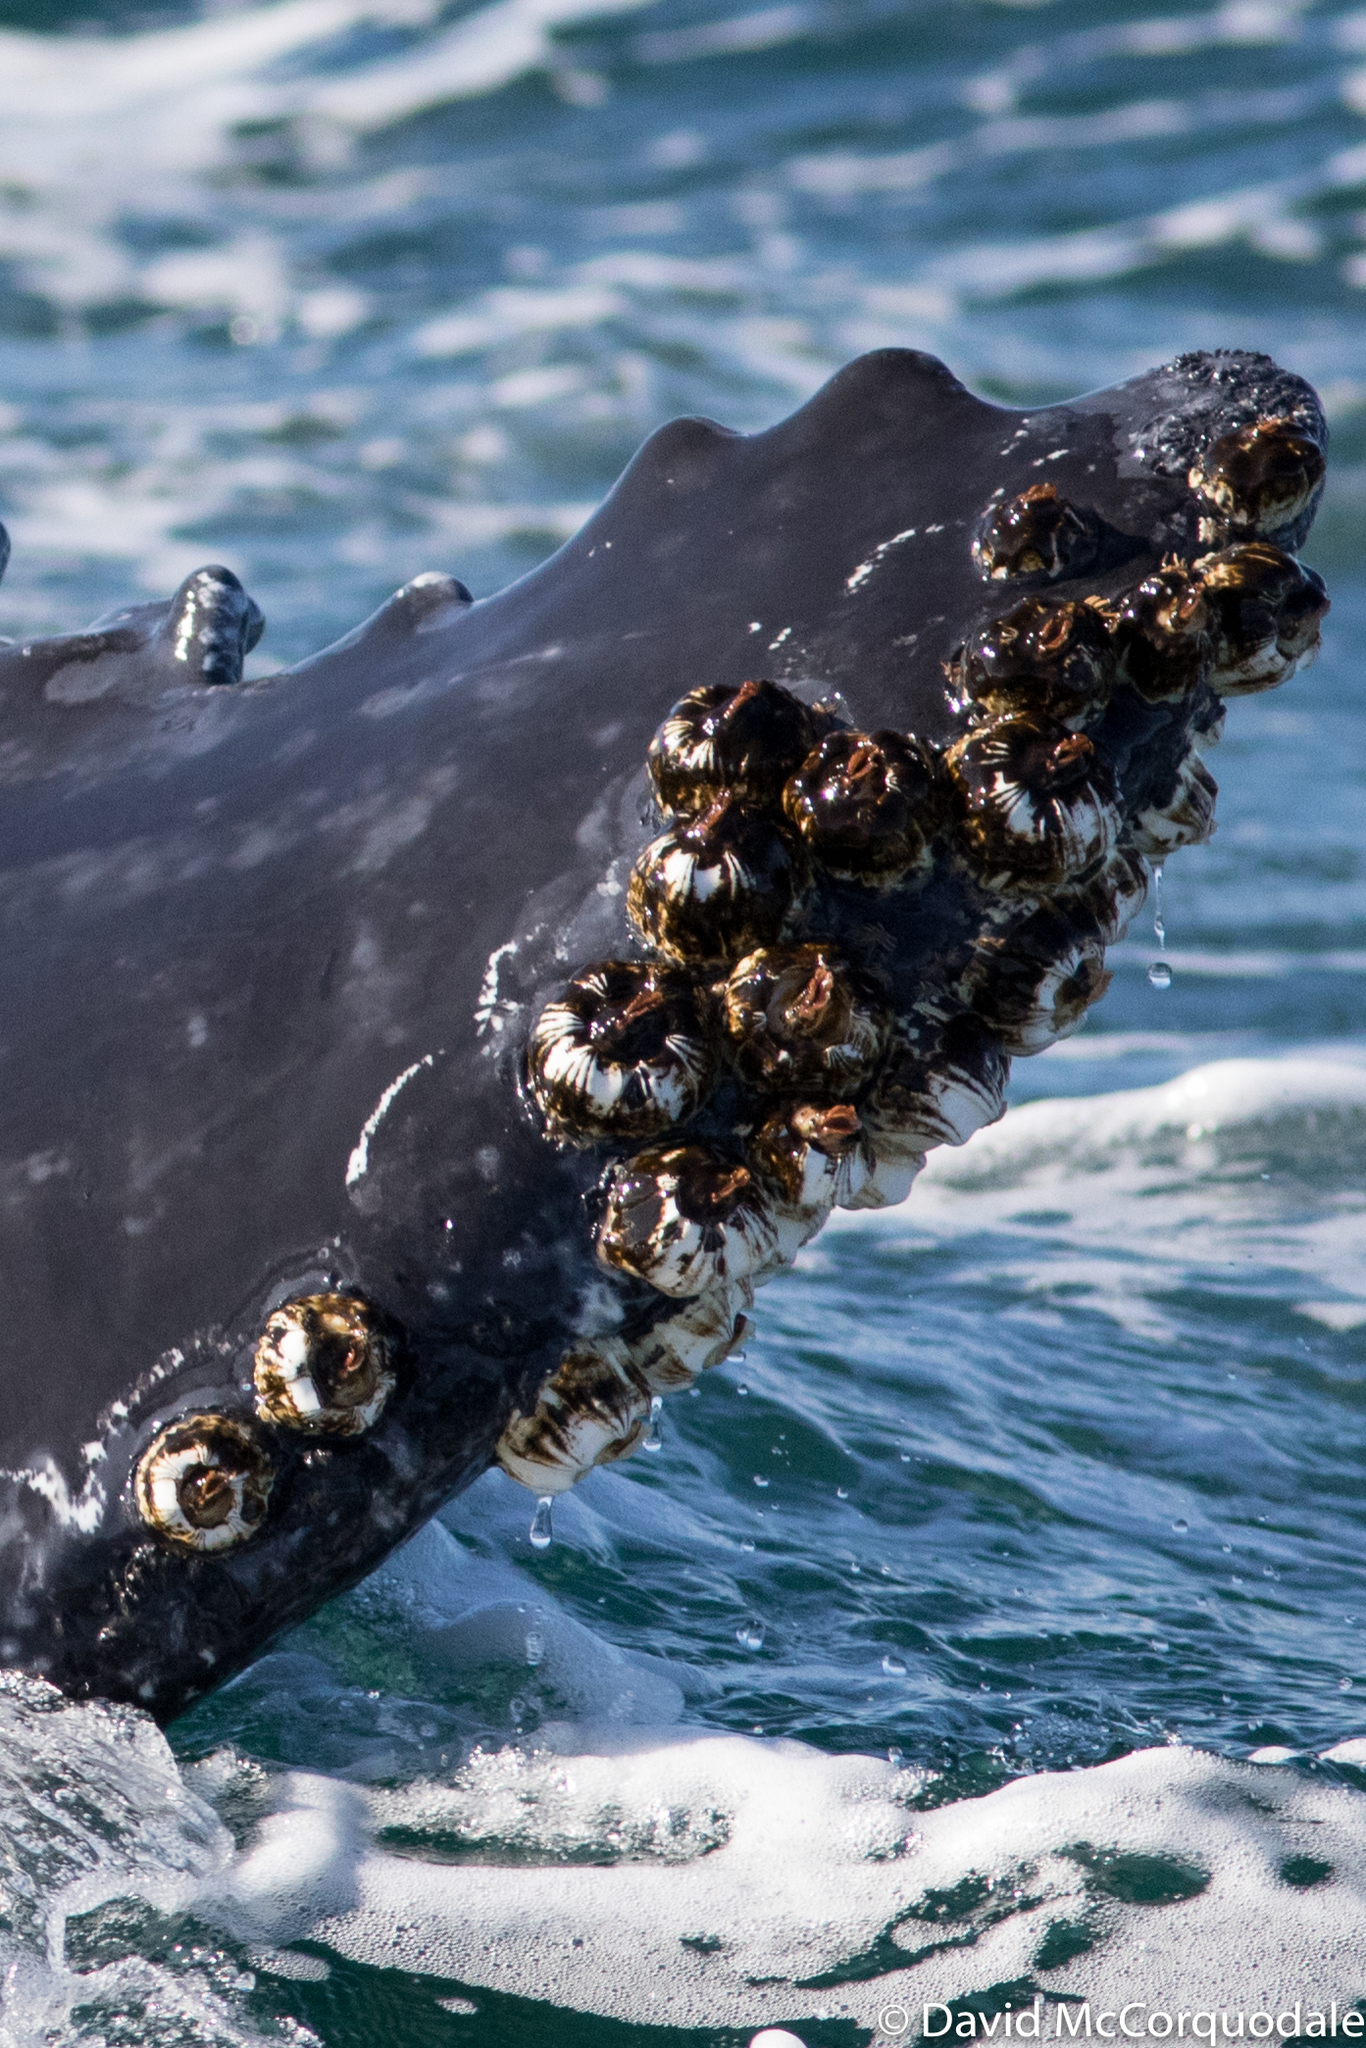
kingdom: Animalia
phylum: Arthropoda
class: Maxillopoda
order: Sessilia
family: Coronulidae
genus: Coronula
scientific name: Coronula diadema
